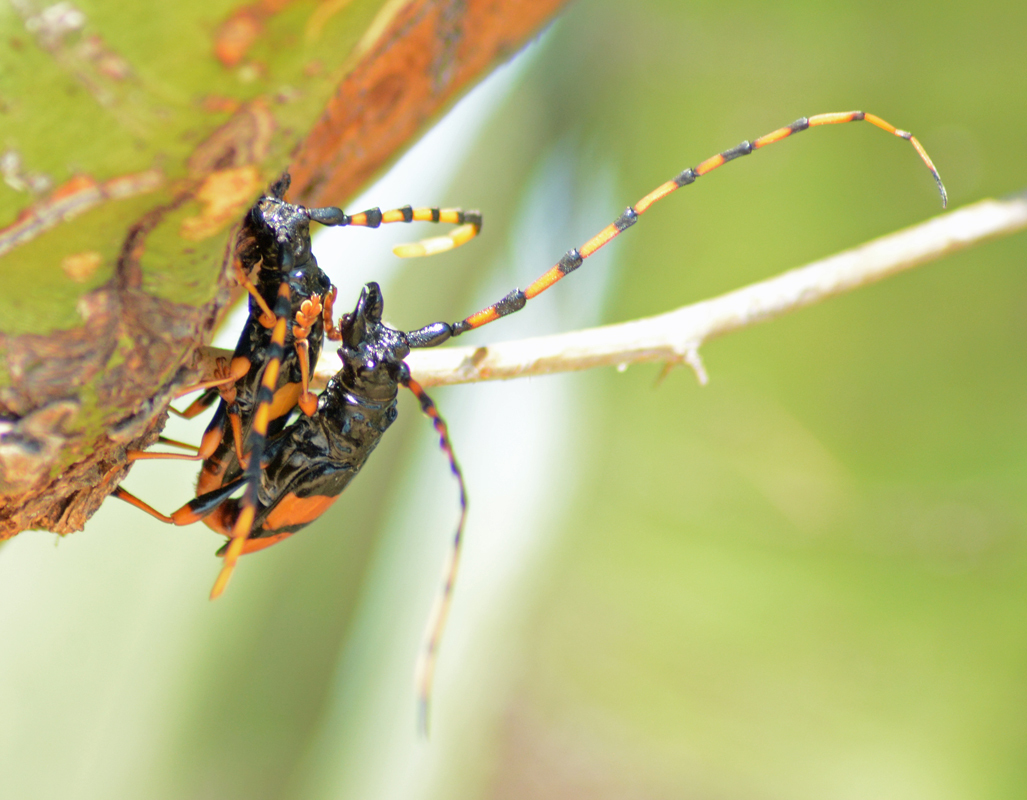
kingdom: Animalia
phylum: Arthropoda
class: Insecta
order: Coleoptera
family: Cerambycidae
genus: Trachyderes
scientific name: Trachyderes mandibularis
